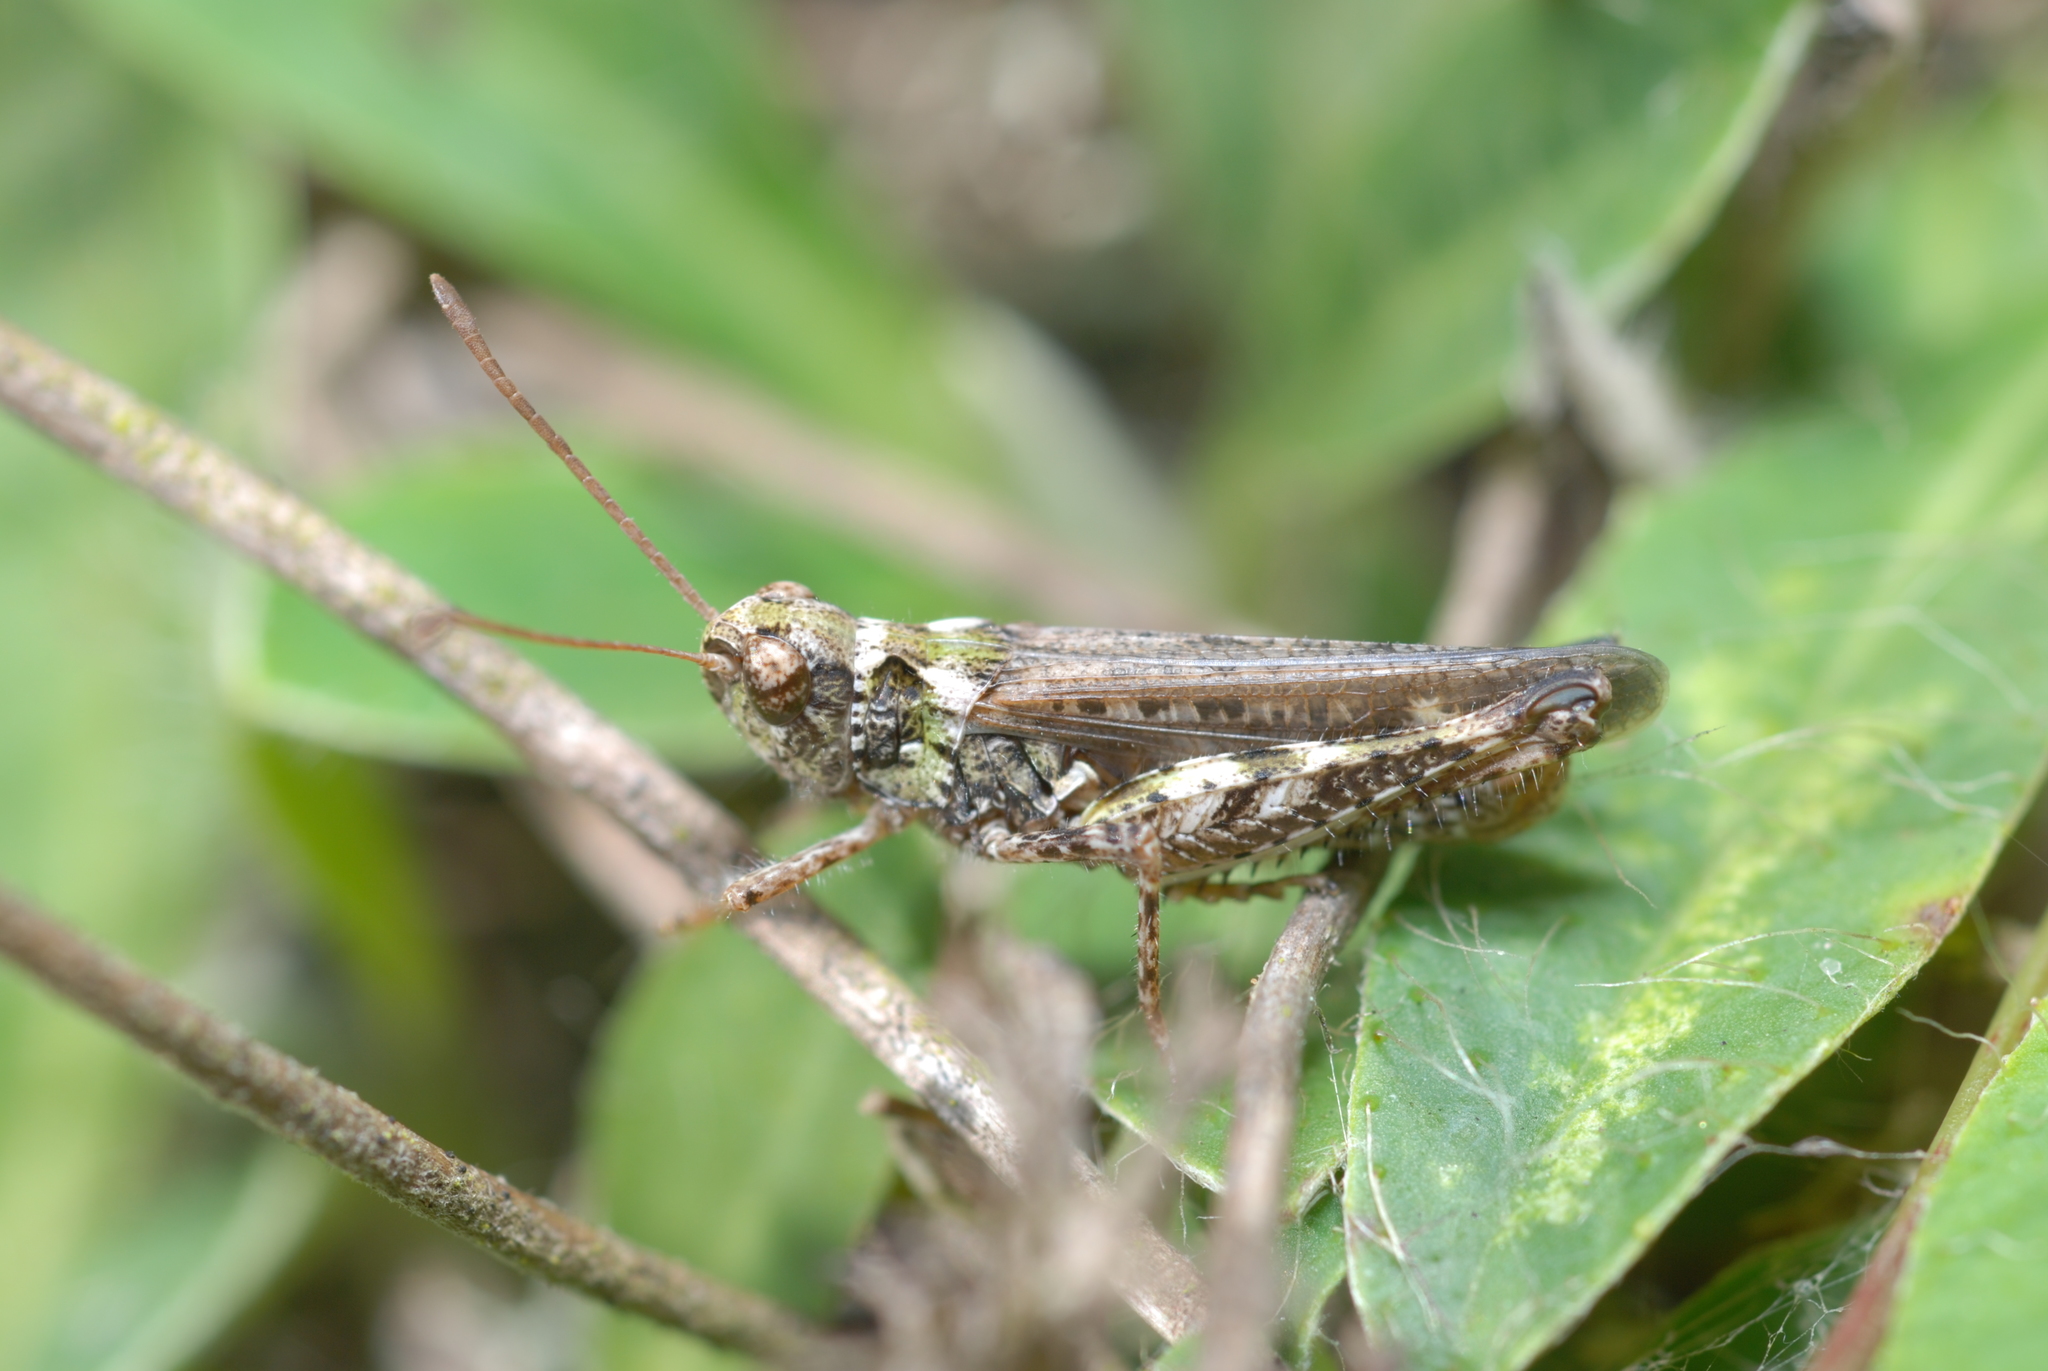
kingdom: Animalia
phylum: Arthropoda
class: Insecta
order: Orthoptera
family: Acrididae
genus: Myrmeleotettix
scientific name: Myrmeleotettix maculatus
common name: Mottled grasshopper
